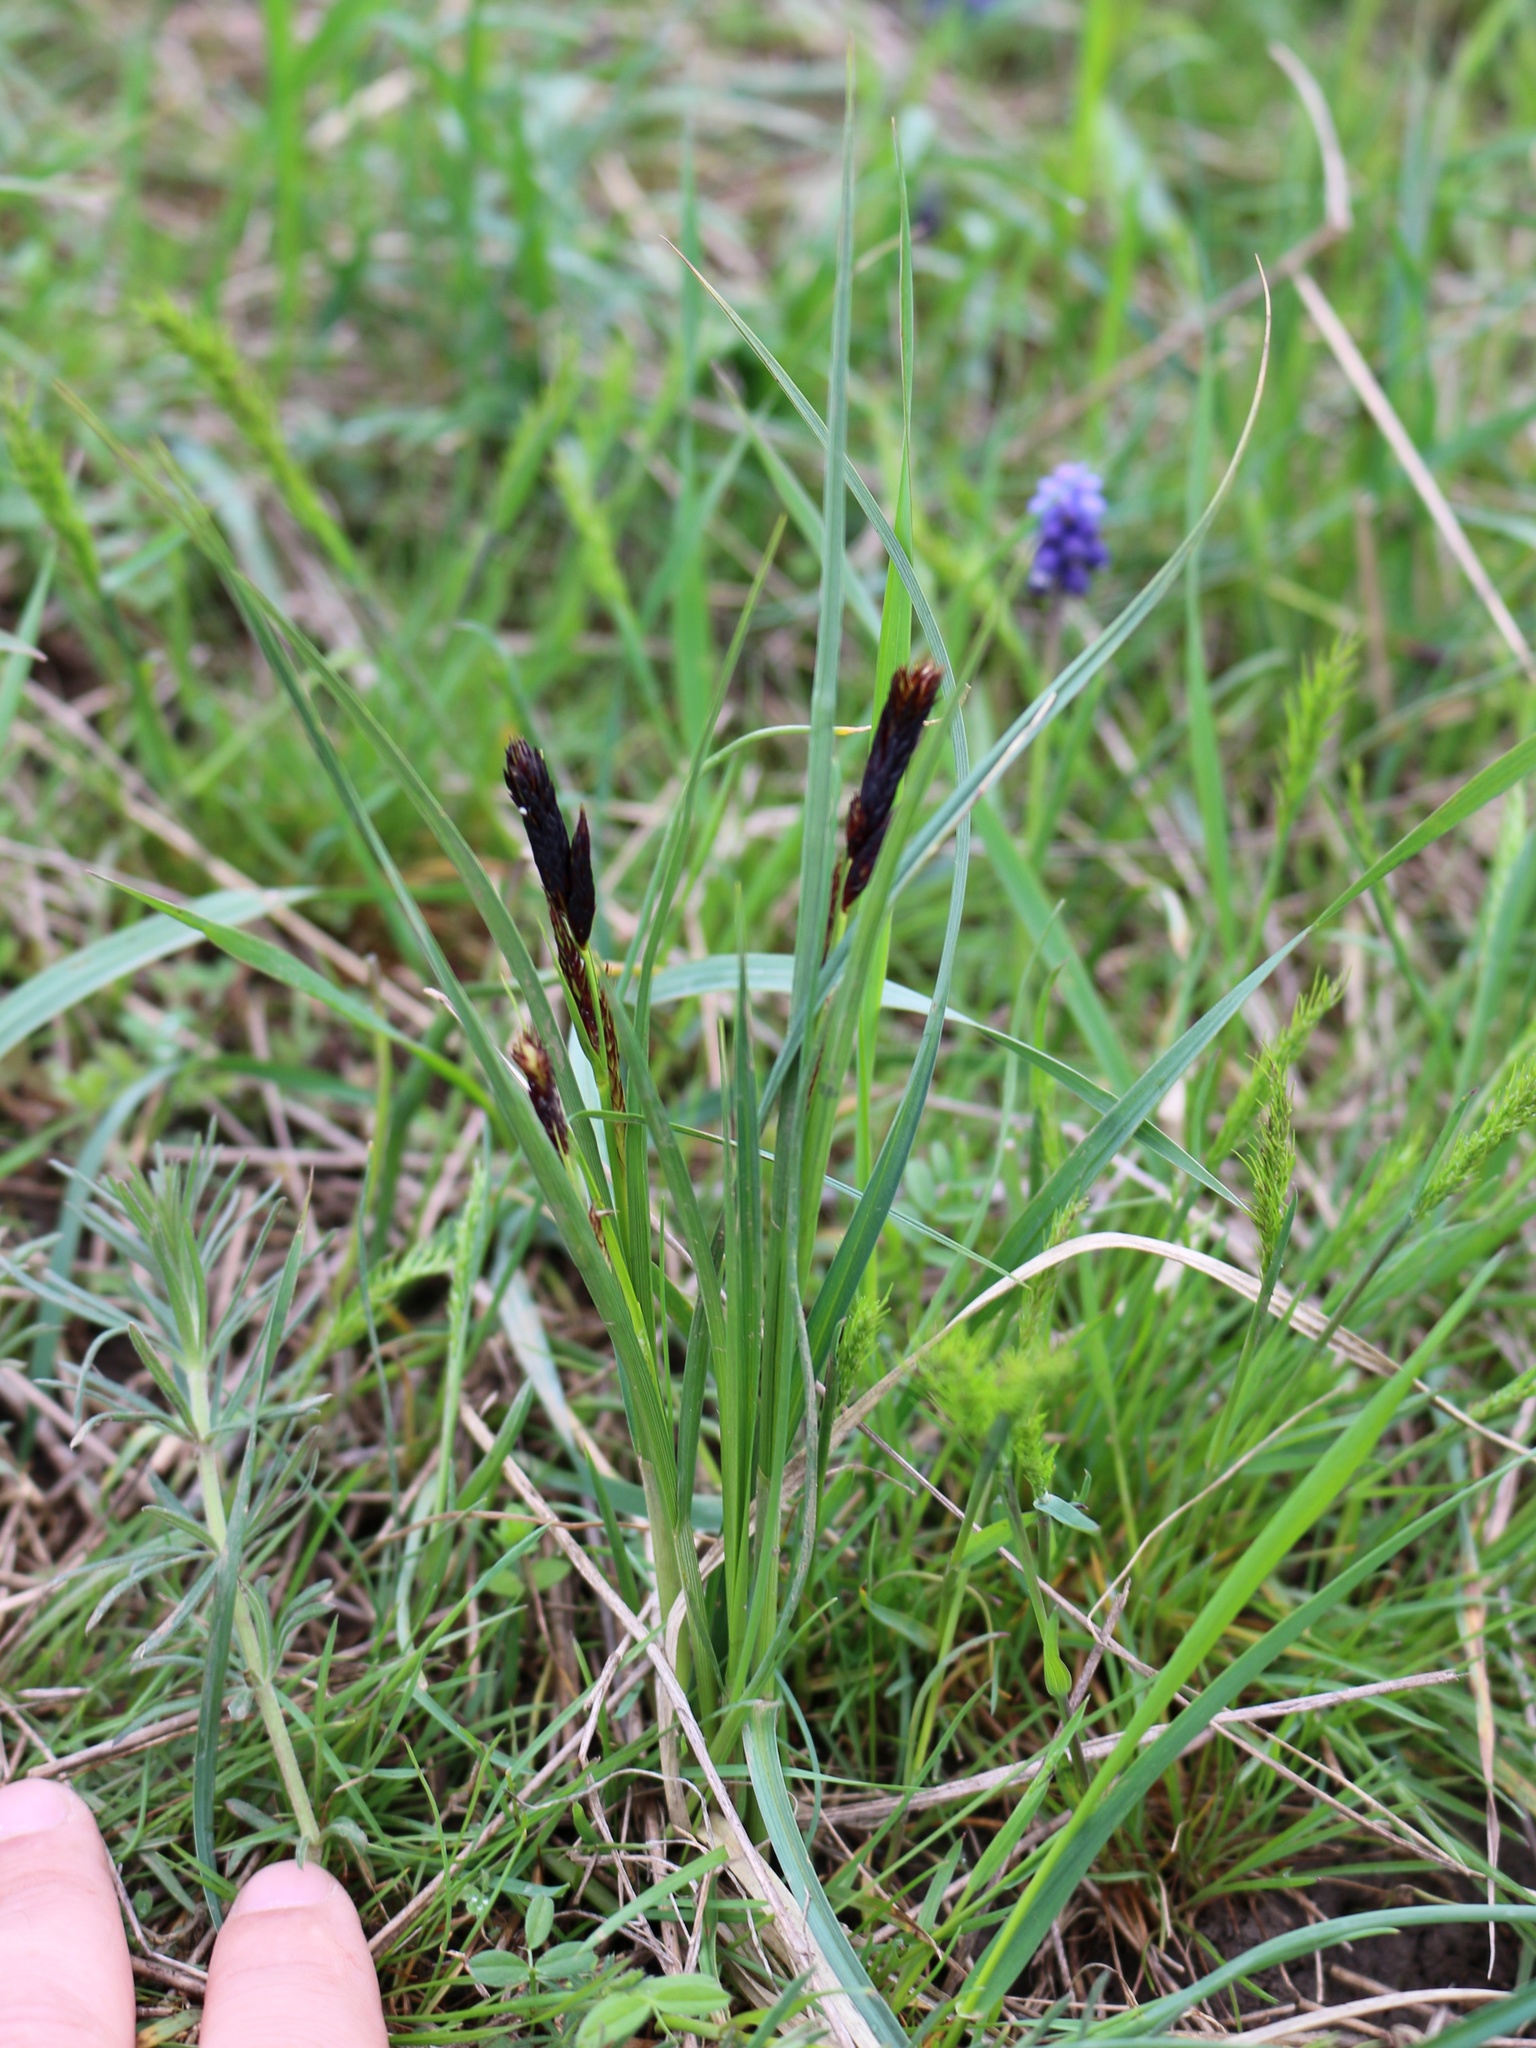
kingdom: Plantae
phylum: Tracheophyta
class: Liliopsida
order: Poales
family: Cyperaceae
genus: Carex
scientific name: Carex melanostachya
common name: Black-spiked sedge
